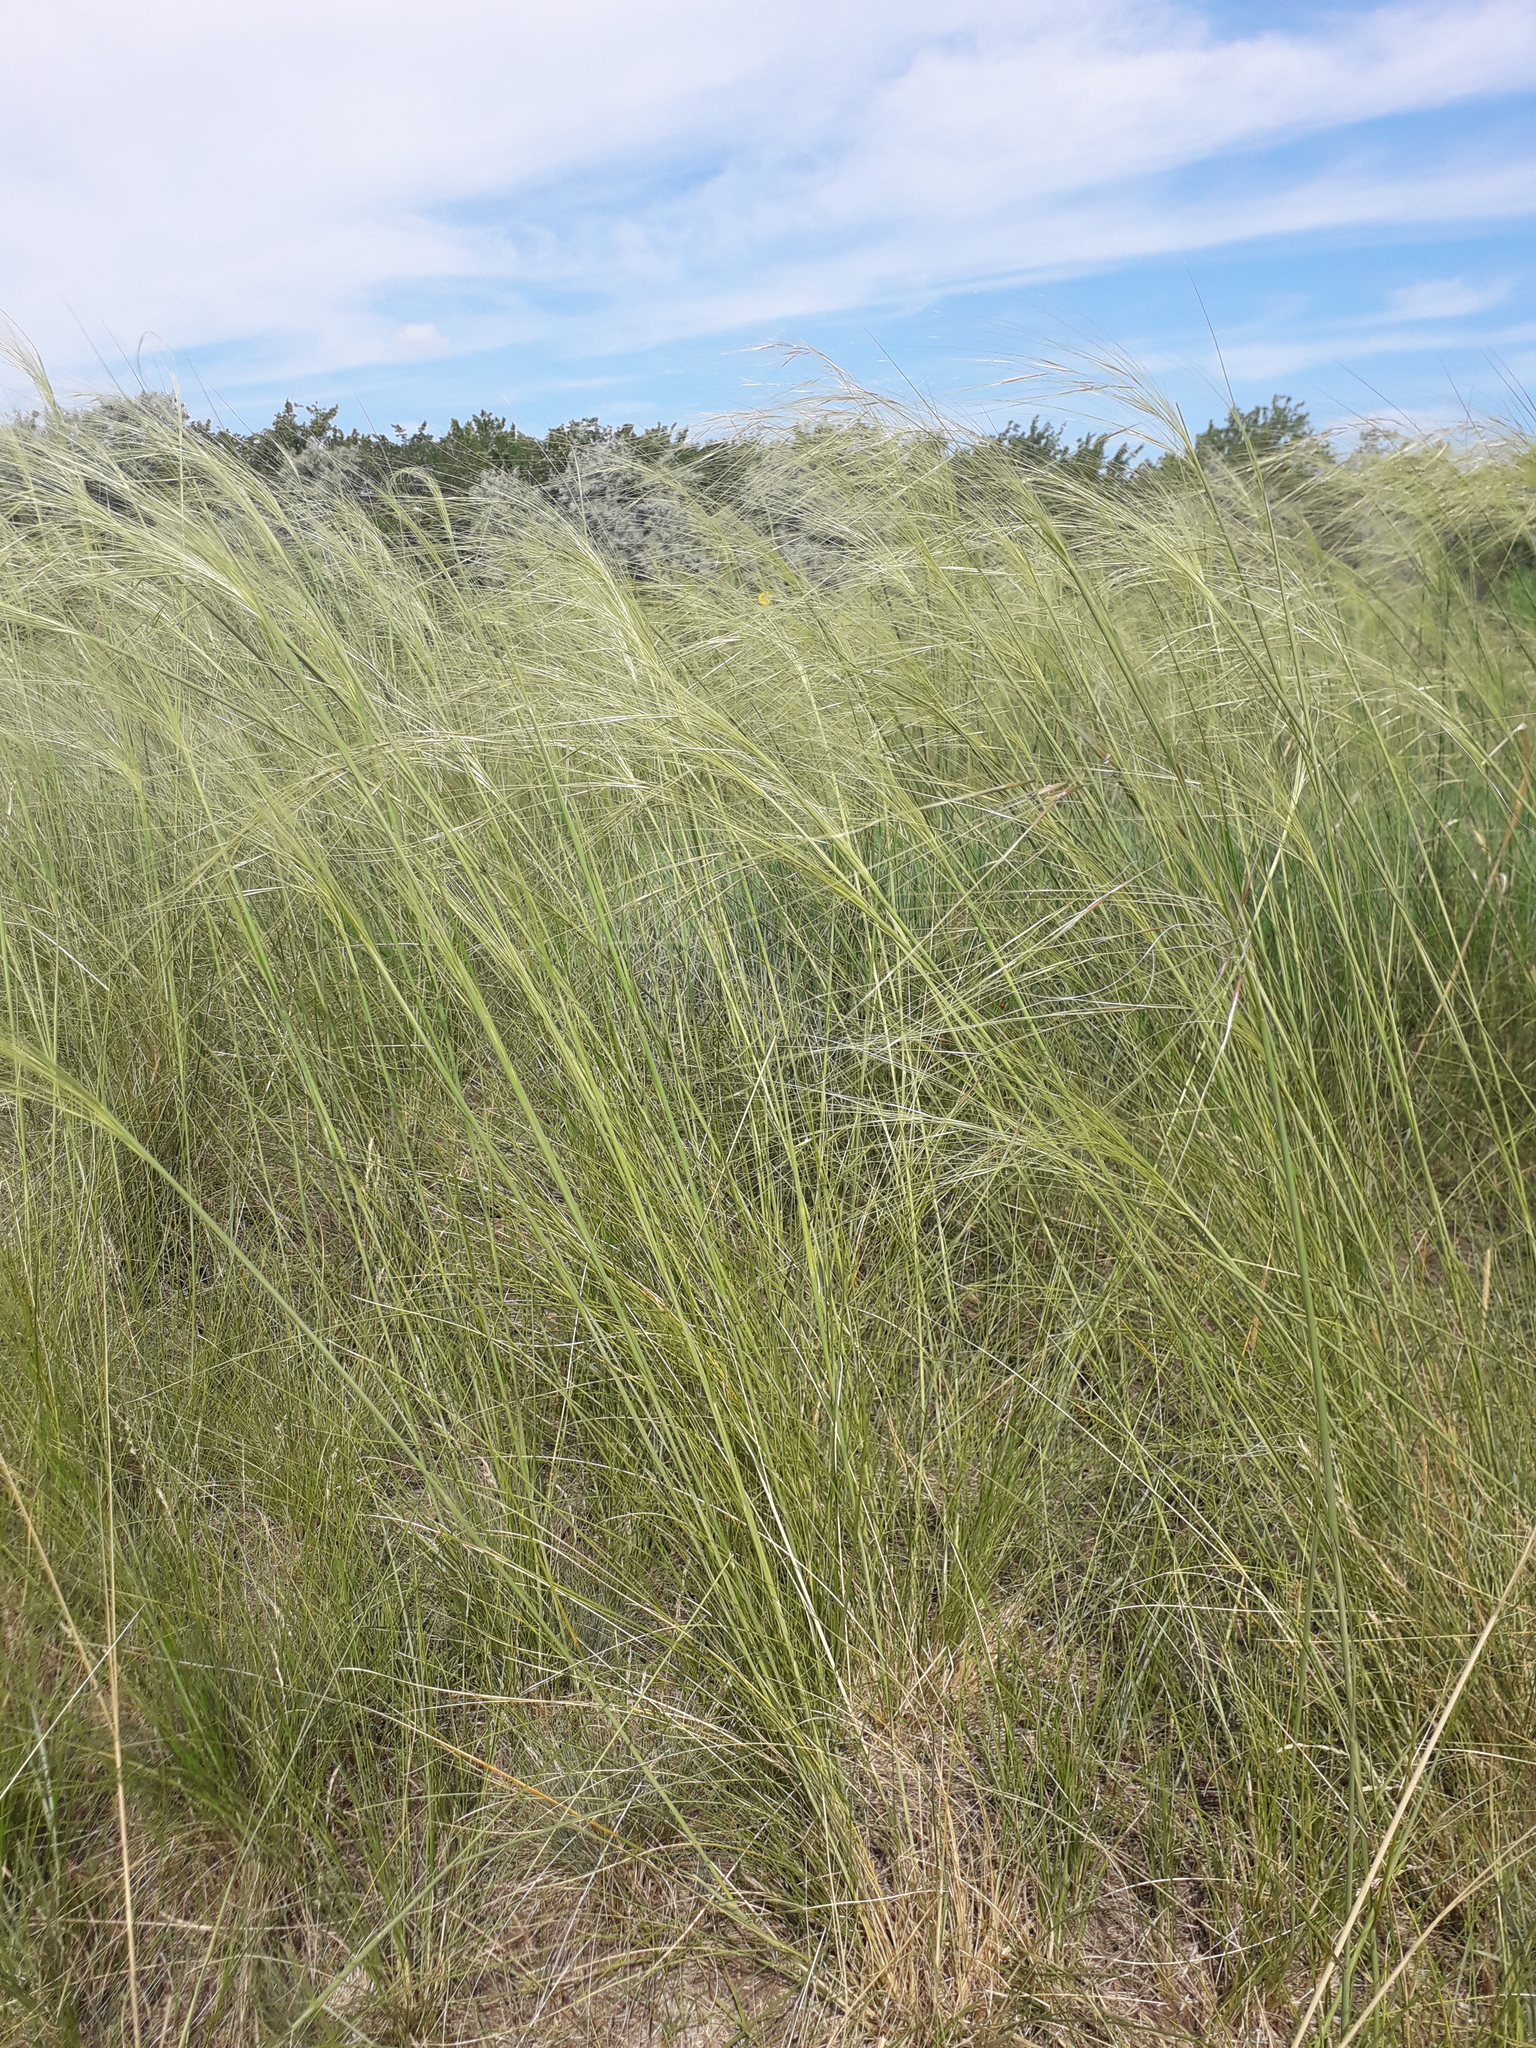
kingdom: Plantae
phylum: Tracheophyta
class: Liliopsida
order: Poales
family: Poaceae
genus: Stipa
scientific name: Stipa capillata
